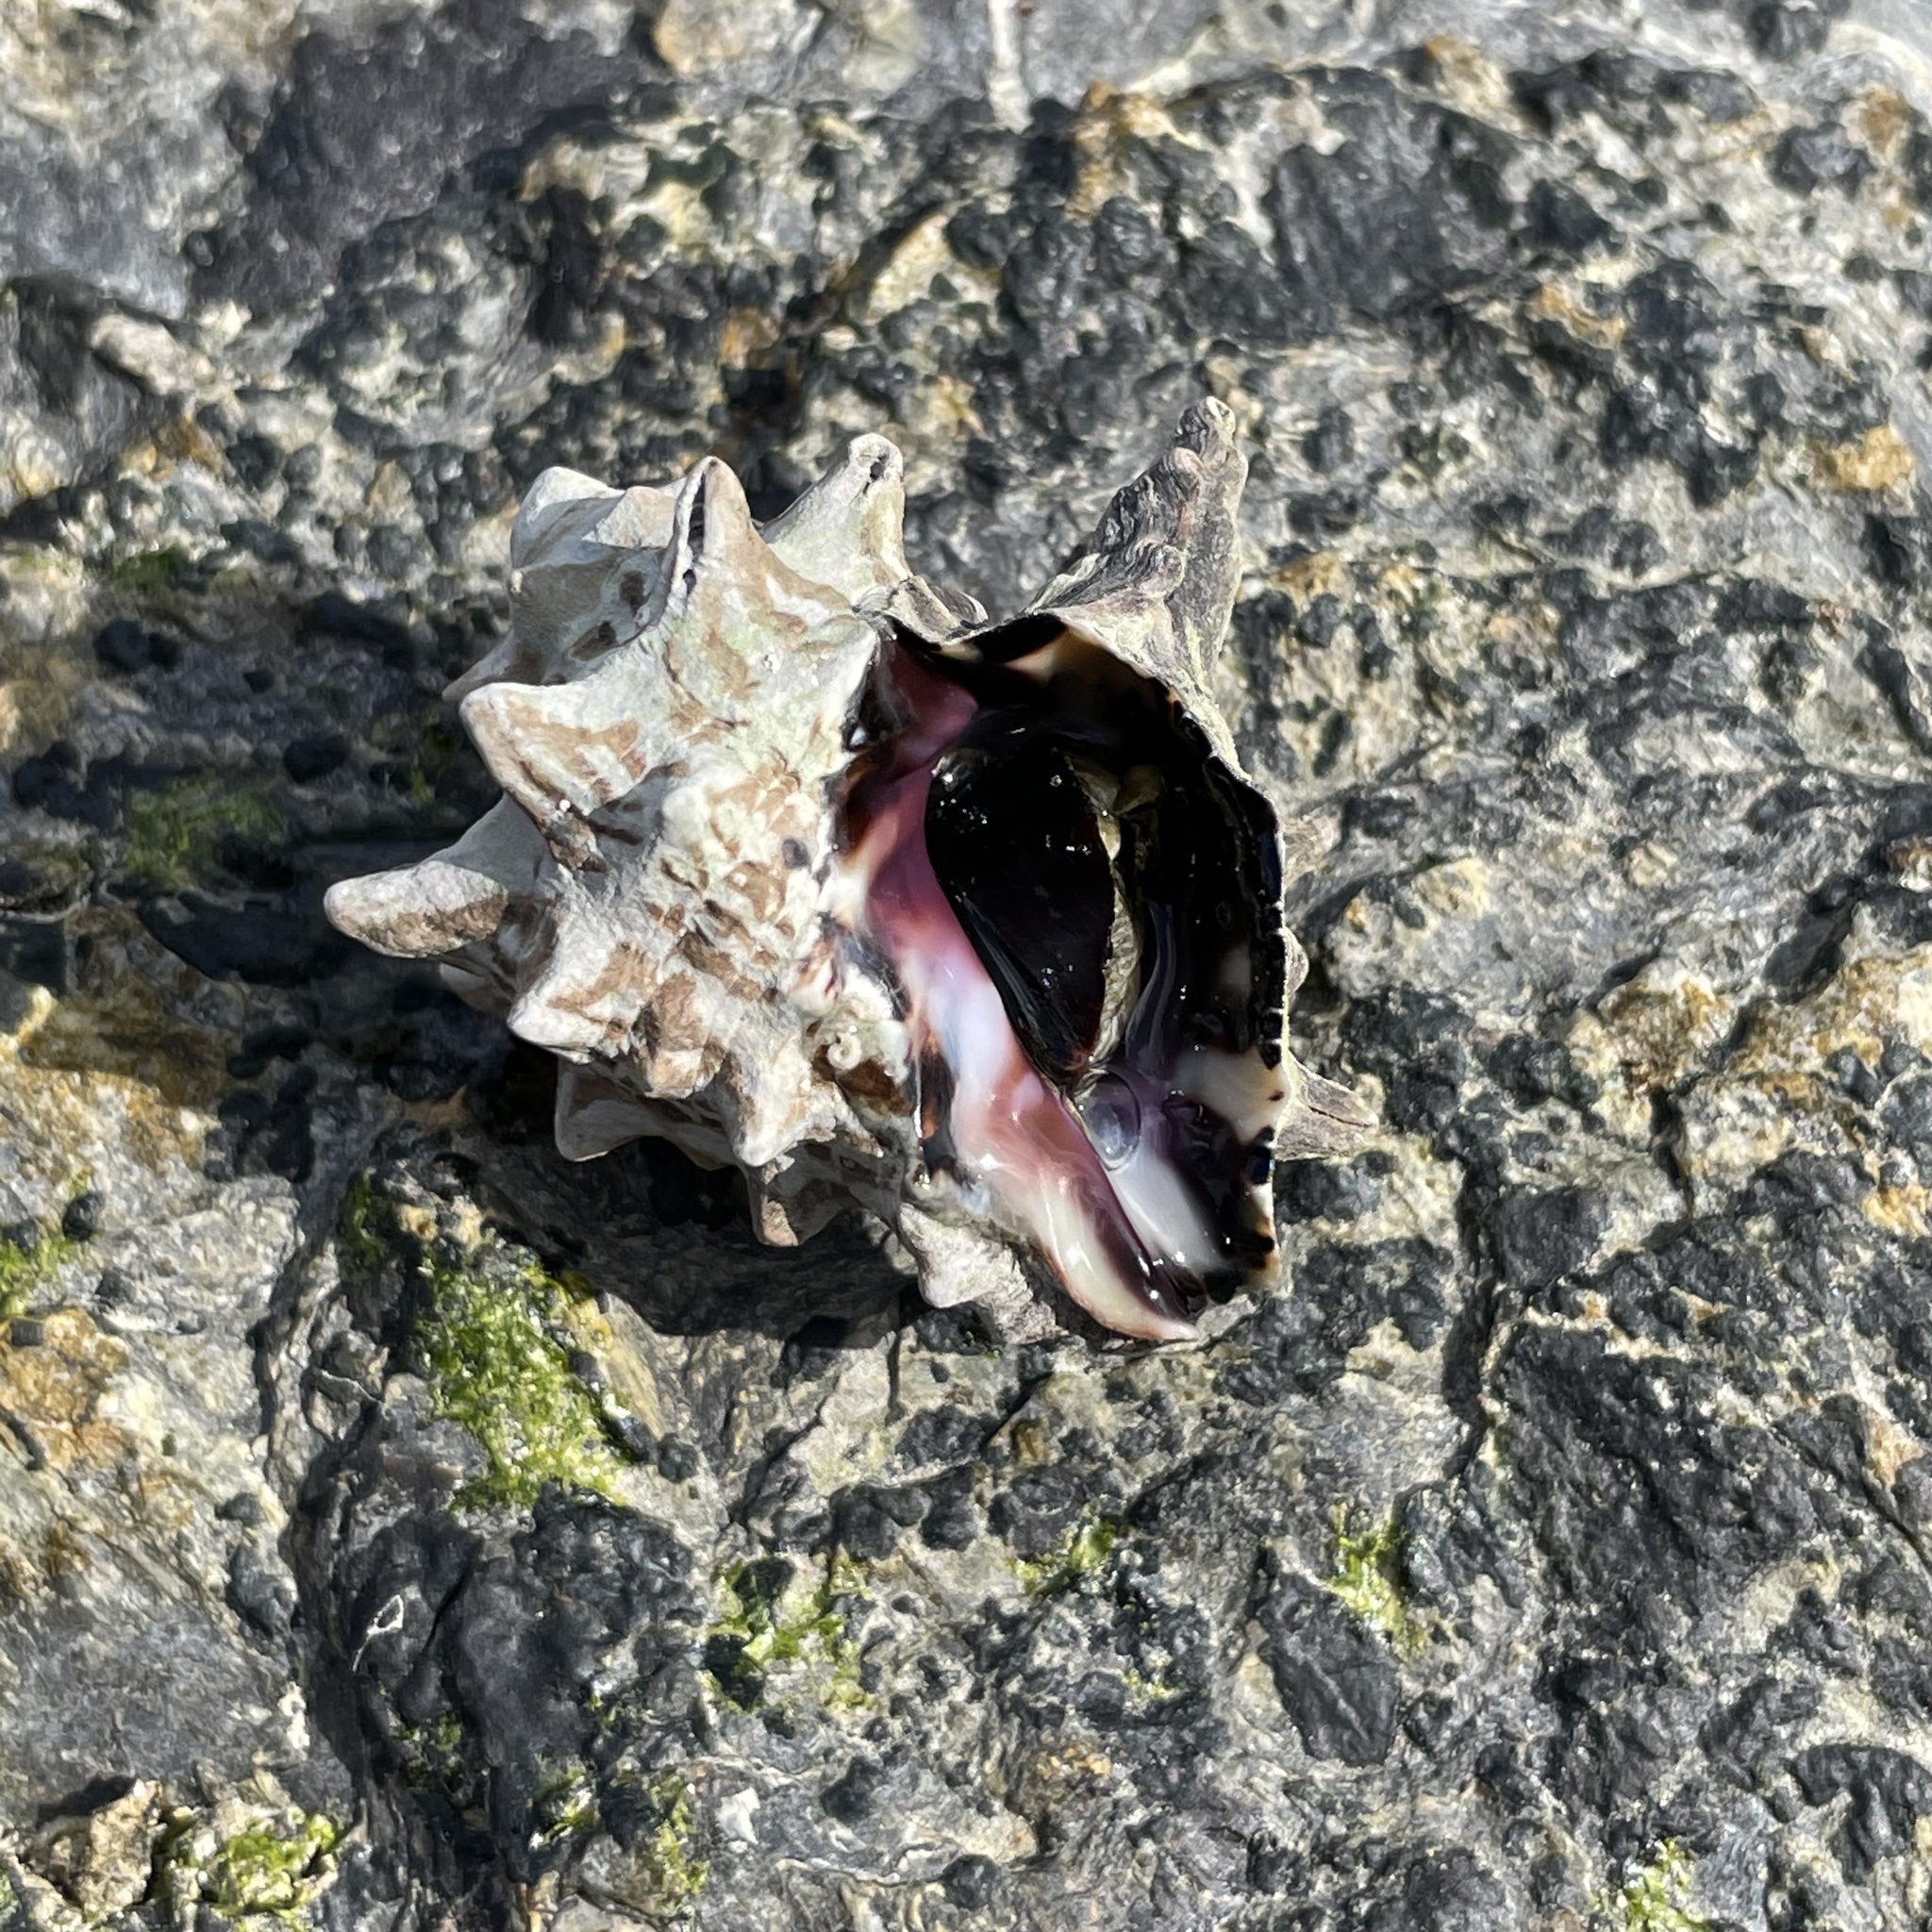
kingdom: Animalia
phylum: Mollusca
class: Gastropoda
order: Neogastropoda
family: Muricidae
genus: Tylothais
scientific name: Tylothais aculeata
